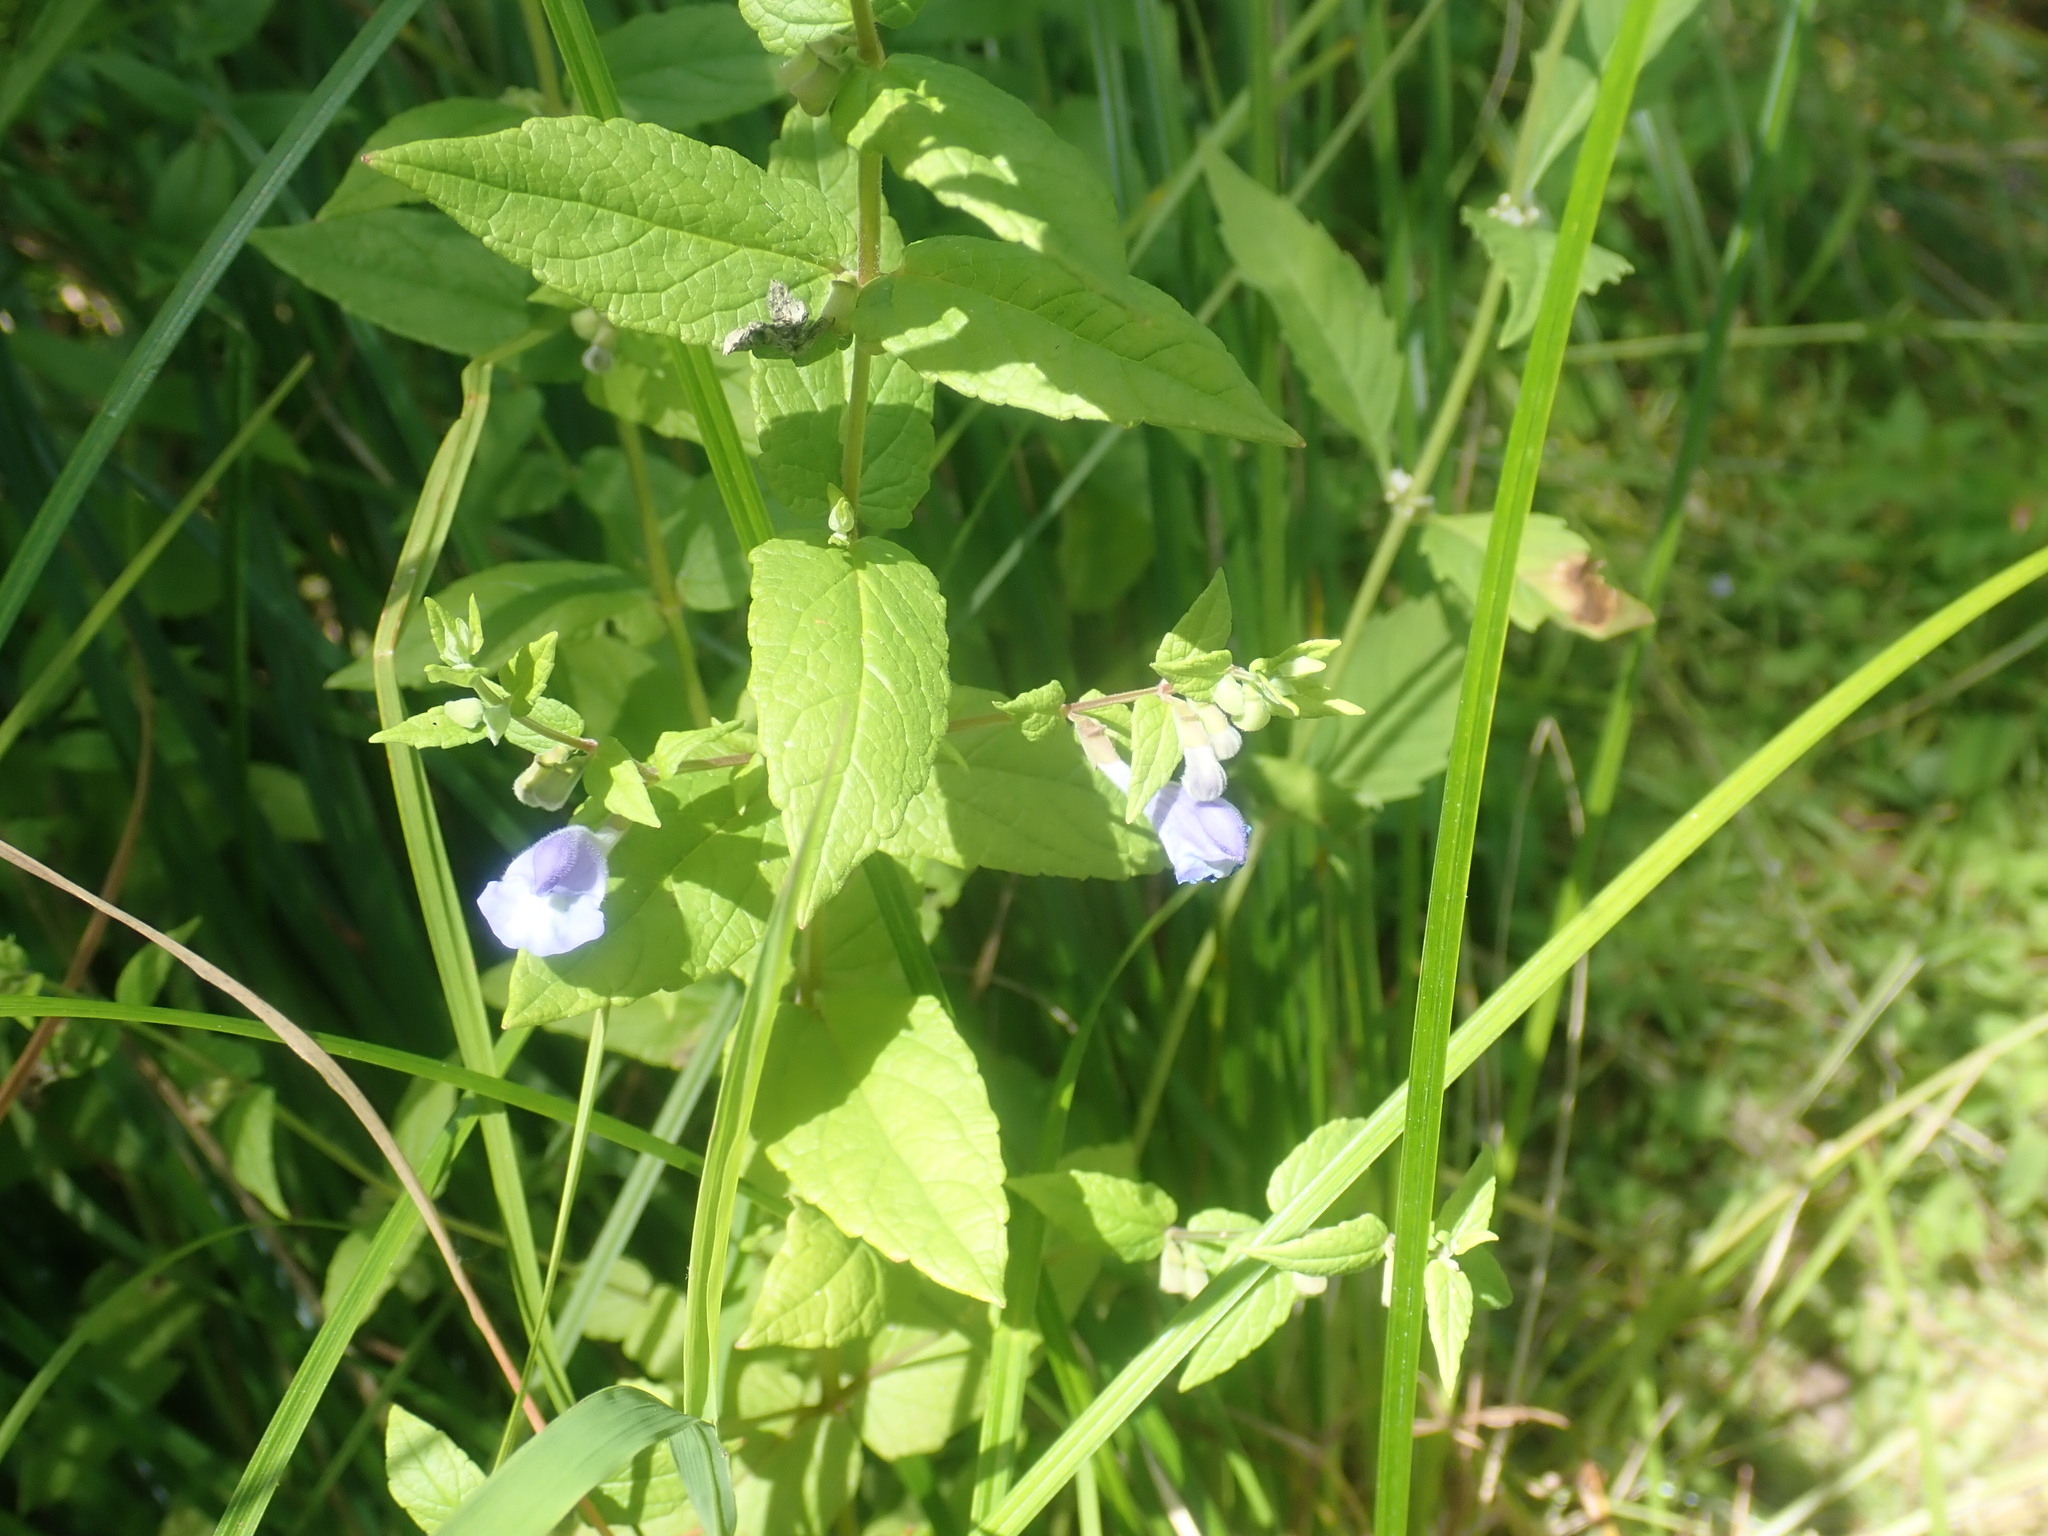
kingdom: Plantae
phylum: Tracheophyta
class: Magnoliopsida
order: Lamiales
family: Lamiaceae
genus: Scutellaria
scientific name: Scutellaria lateriflora
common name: Blue skullcap
